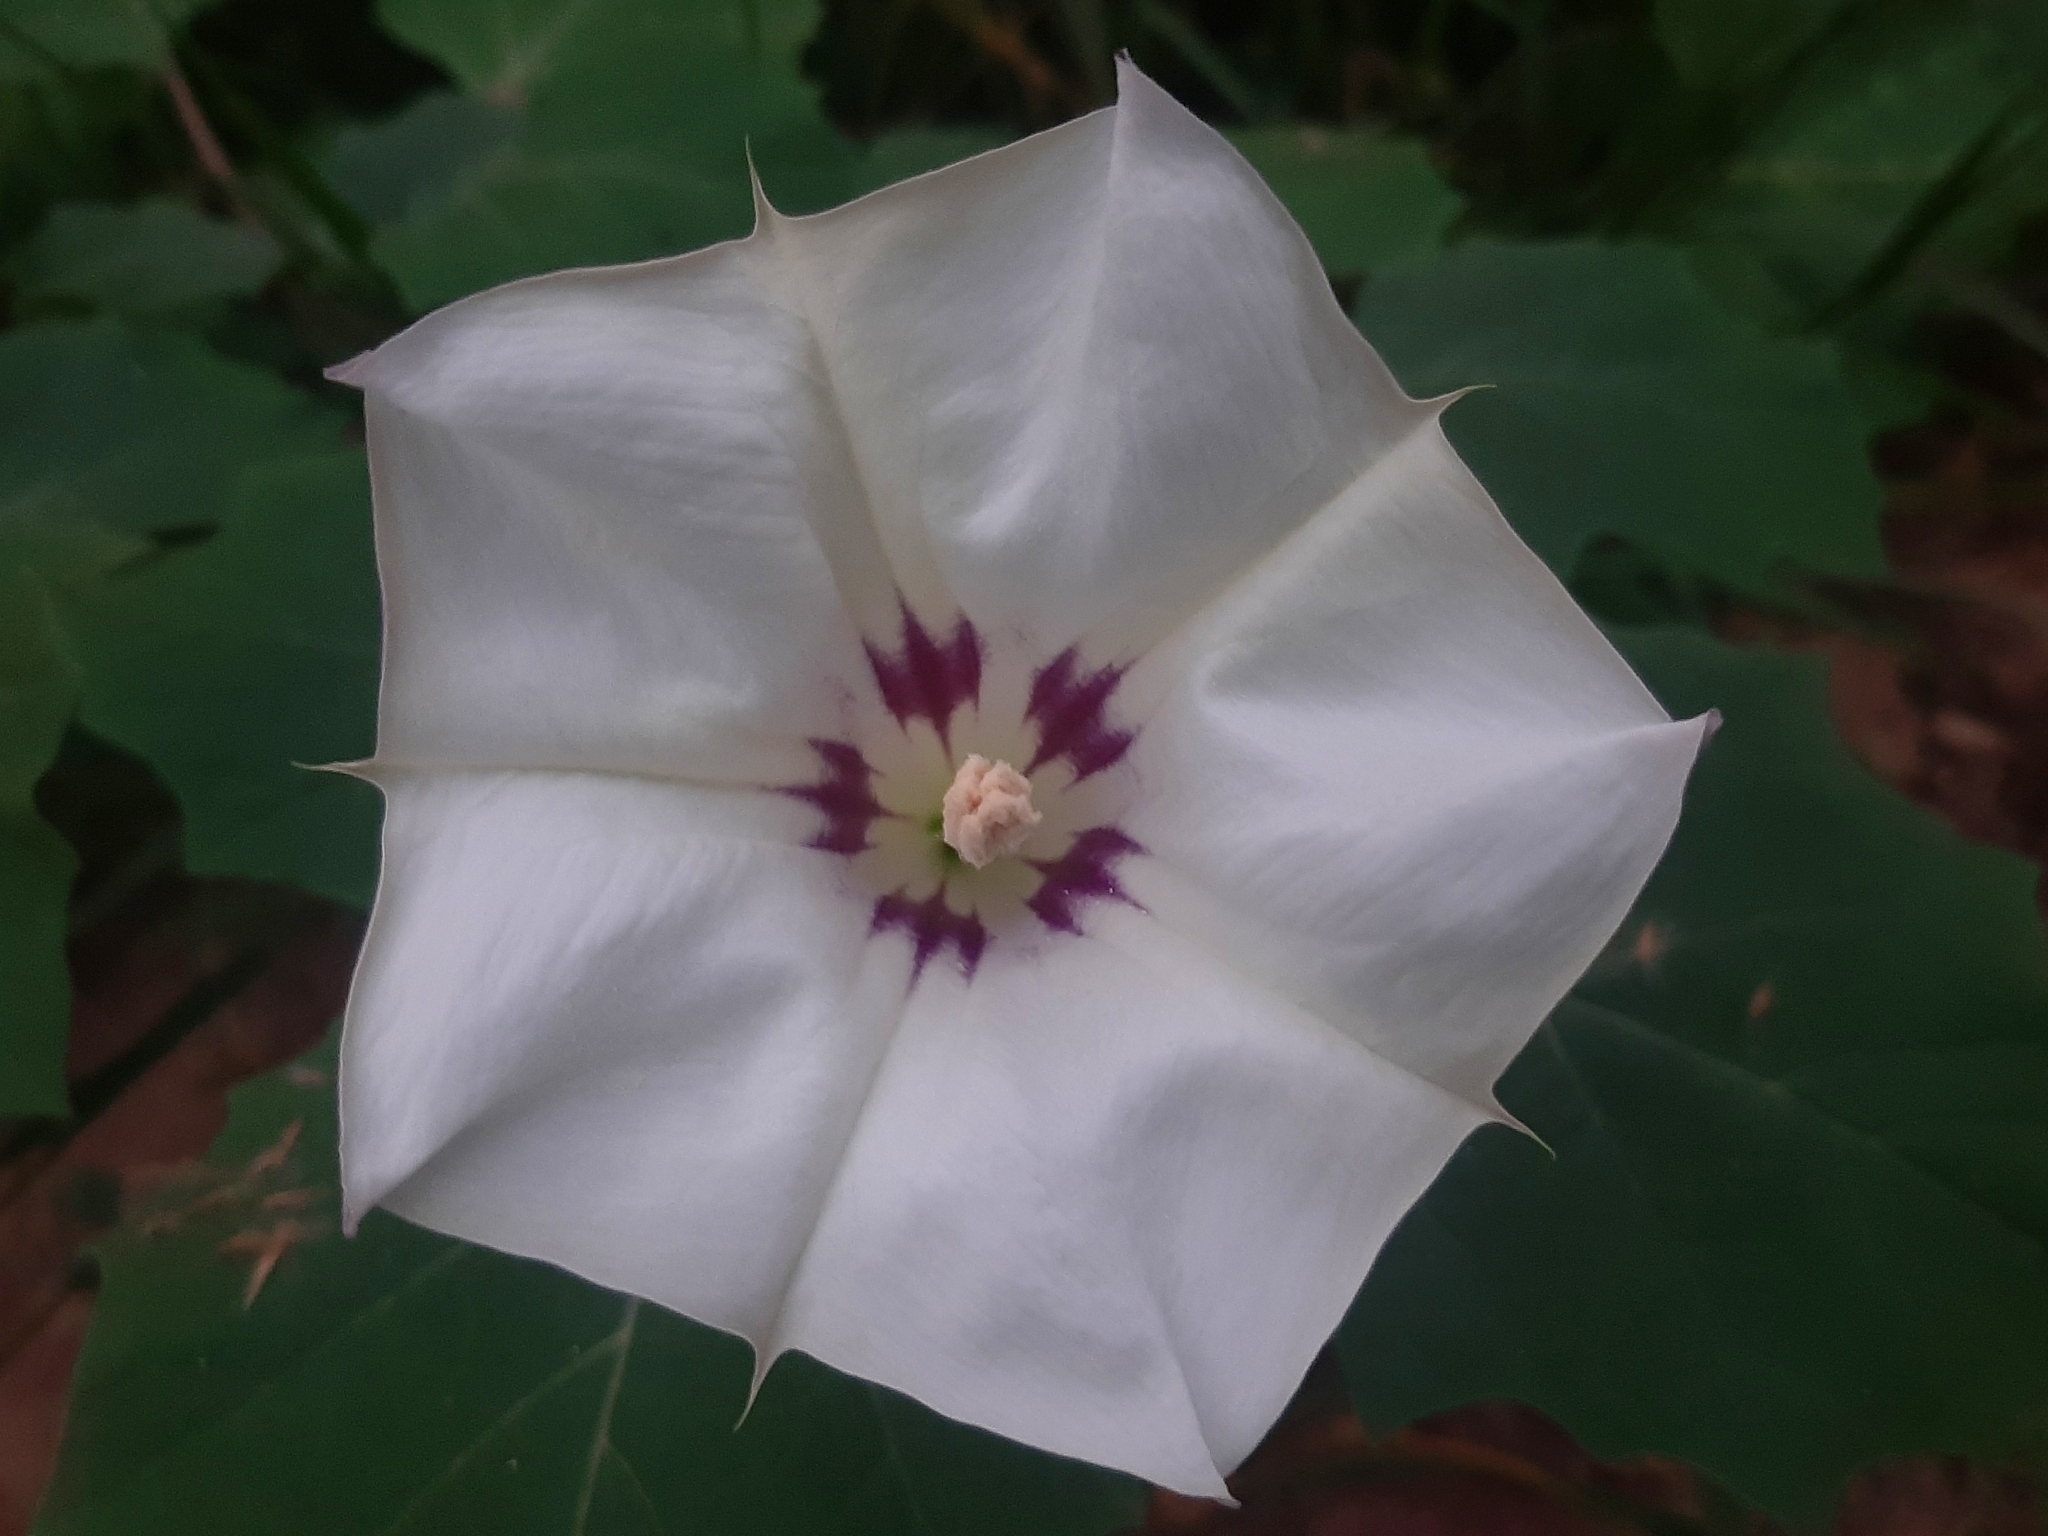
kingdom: Plantae
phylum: Tracheophyta
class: Magnoliopsida
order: Solanales
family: Solanaceae
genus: Datura
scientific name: Datura discolor
